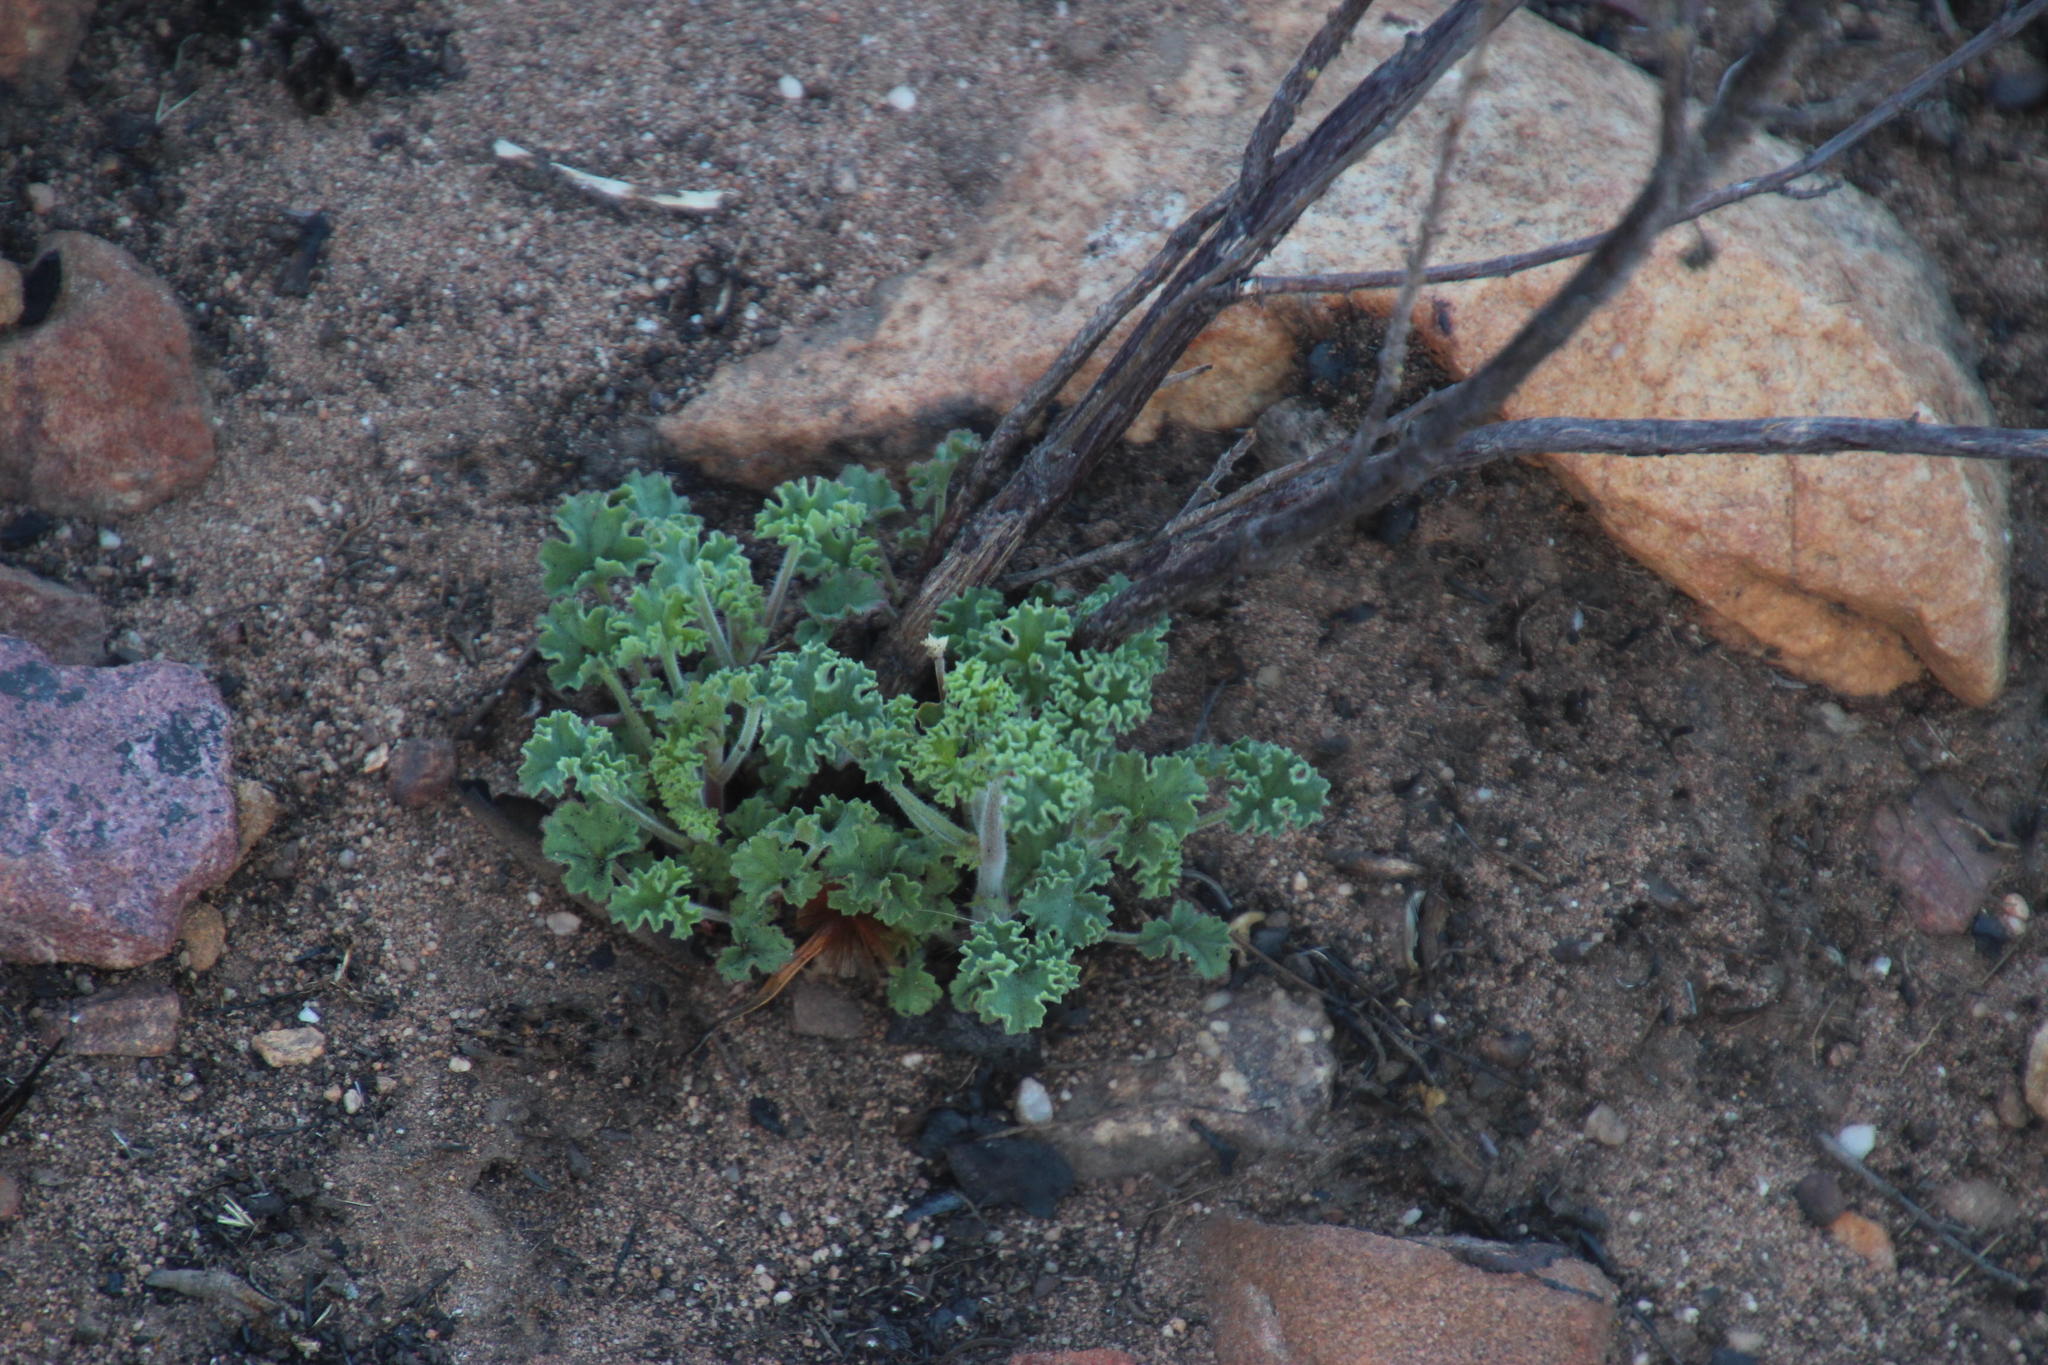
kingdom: Plantae
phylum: Tracheophyta
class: Magnoliopsida
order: Geraniales
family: Geraniaceae
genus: Pelargonium
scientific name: Pelargonium englerianum
